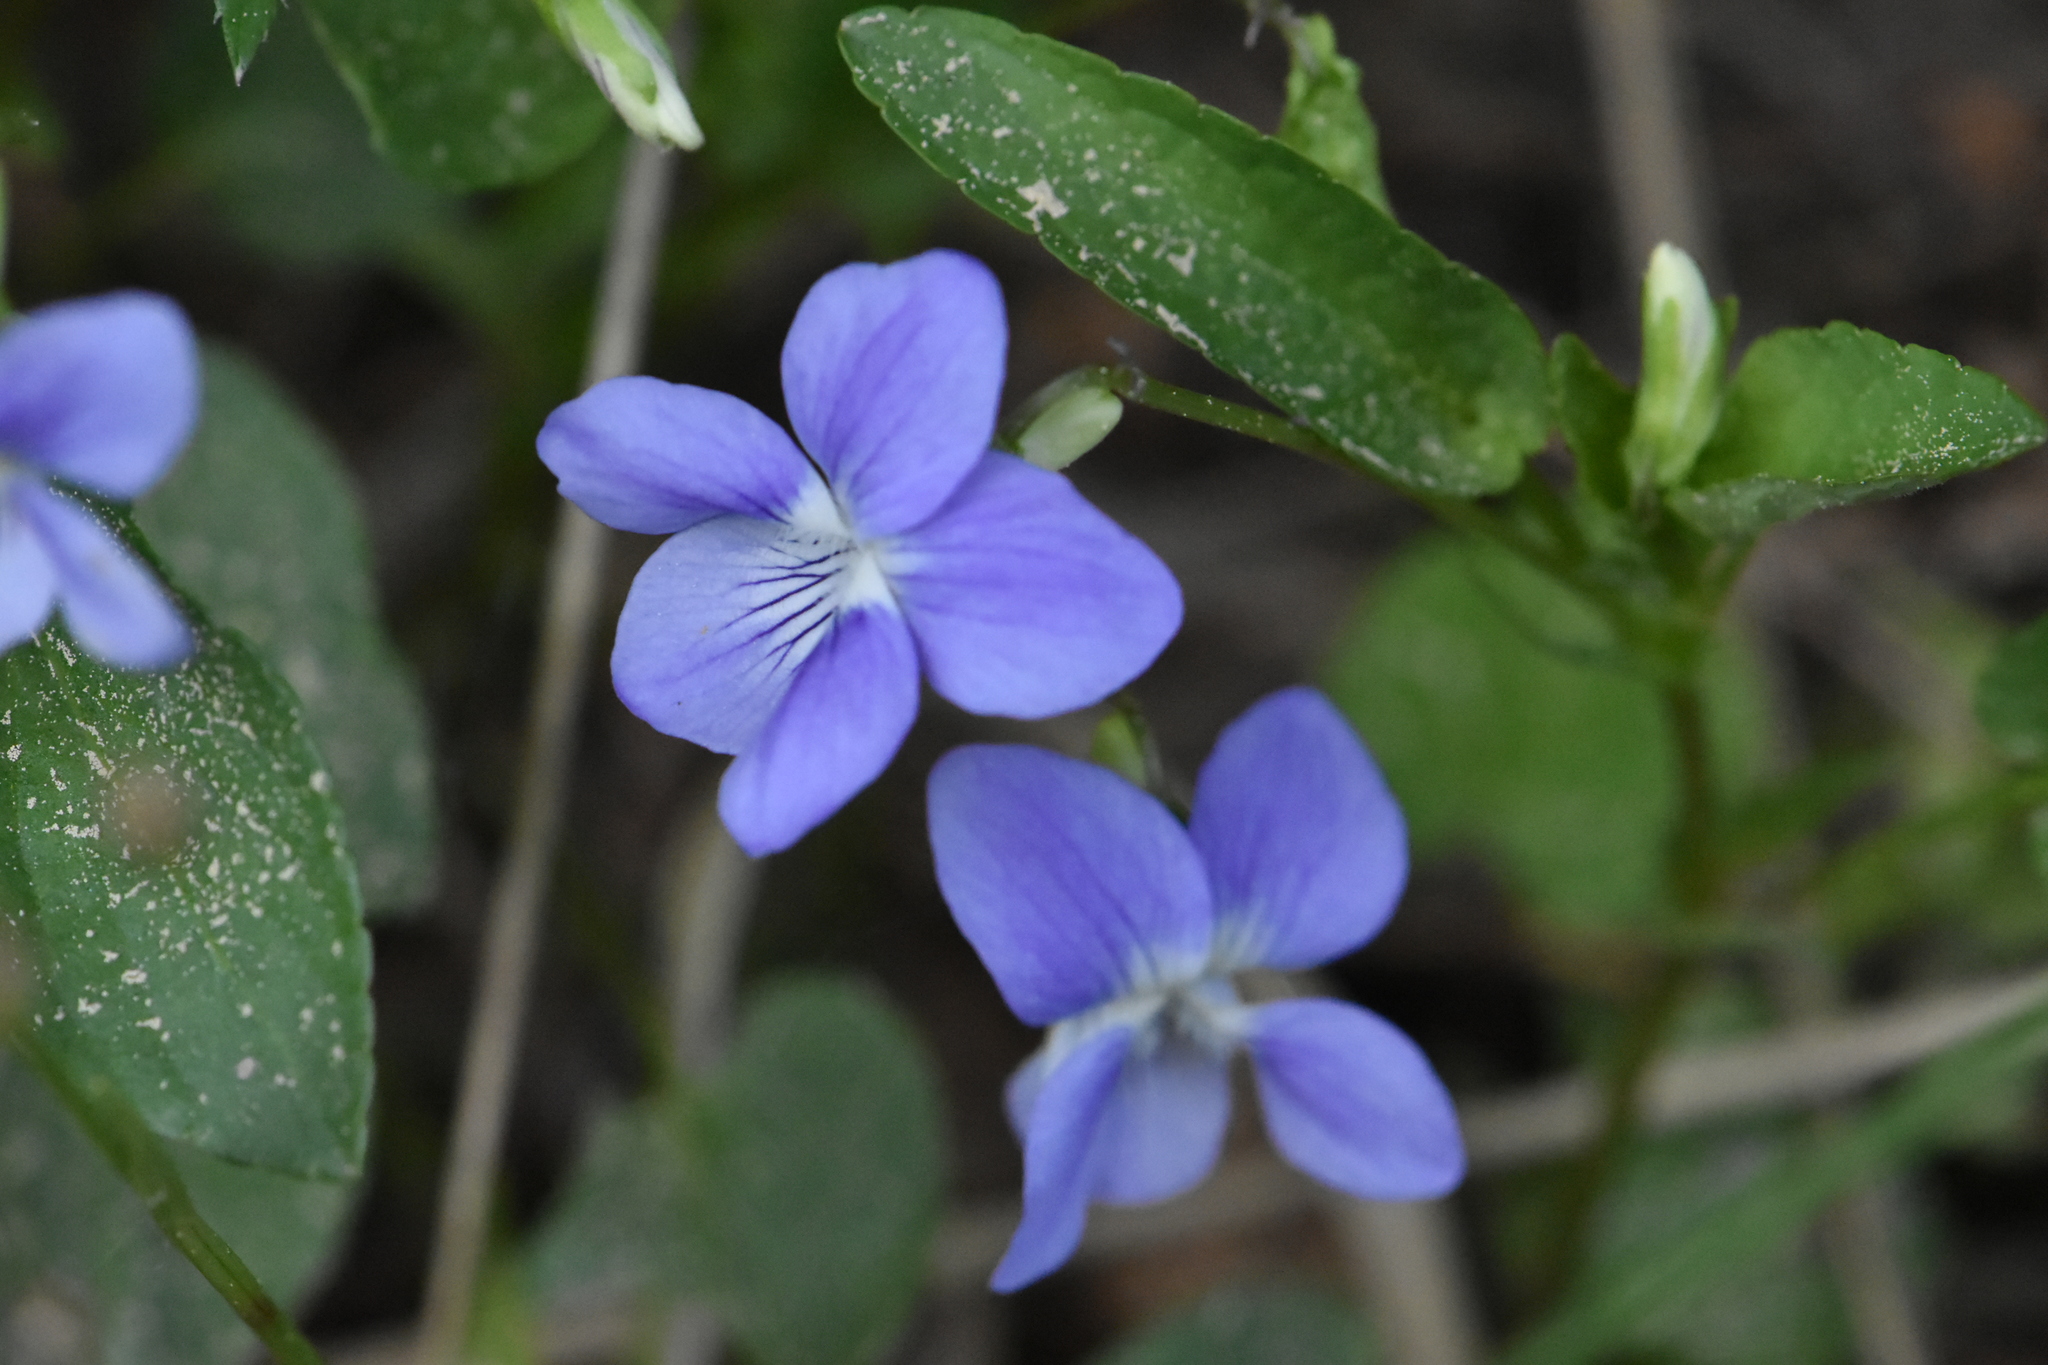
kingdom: Plantae
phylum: Tracheophyta
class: Magnoliopsida
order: Malpighiales
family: Violaceae
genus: Viola
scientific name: Viola canina
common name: Heath dog-violet
